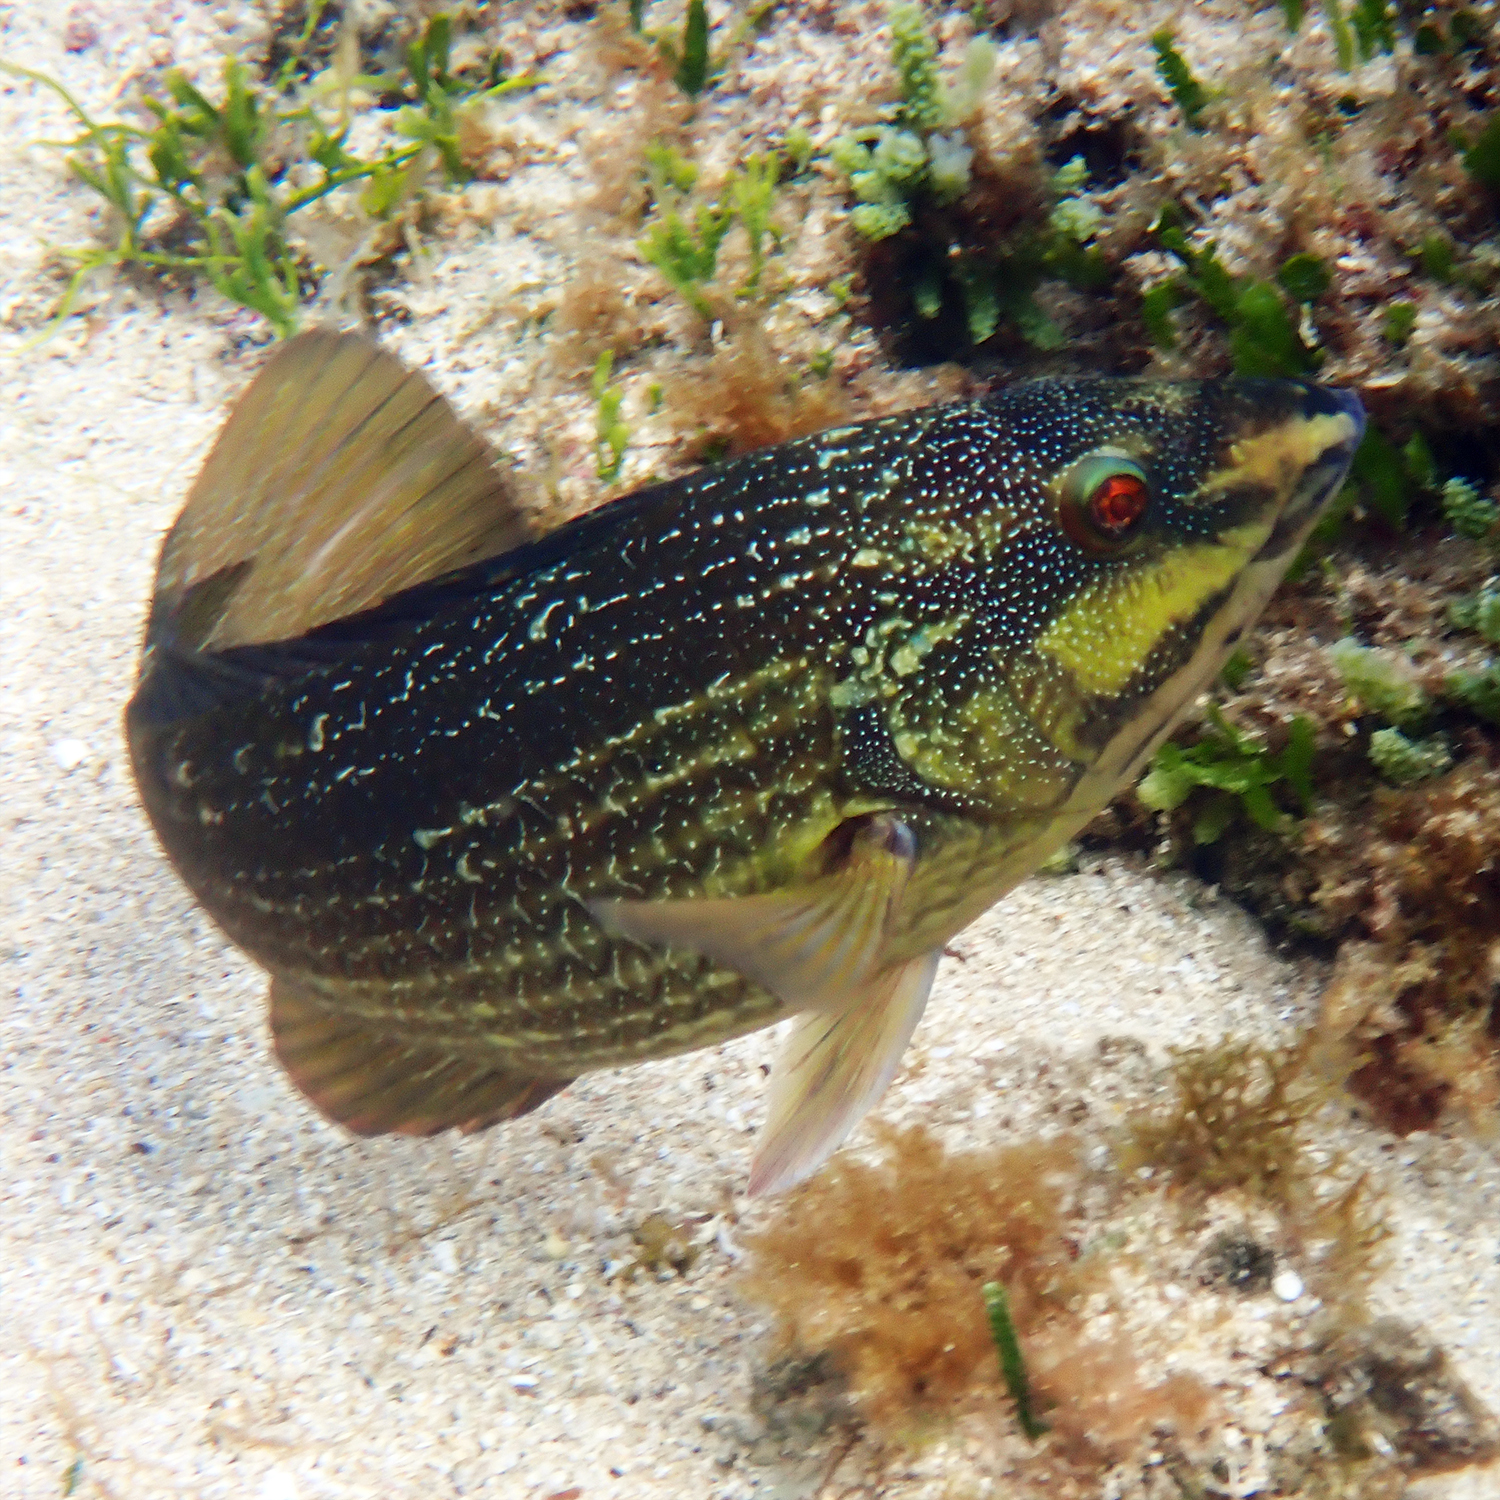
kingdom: Animalia
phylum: Chordata
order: Perciformes
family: Labridae
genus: Notolabrus
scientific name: Notolabrus inscriptus
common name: Green wrasse
